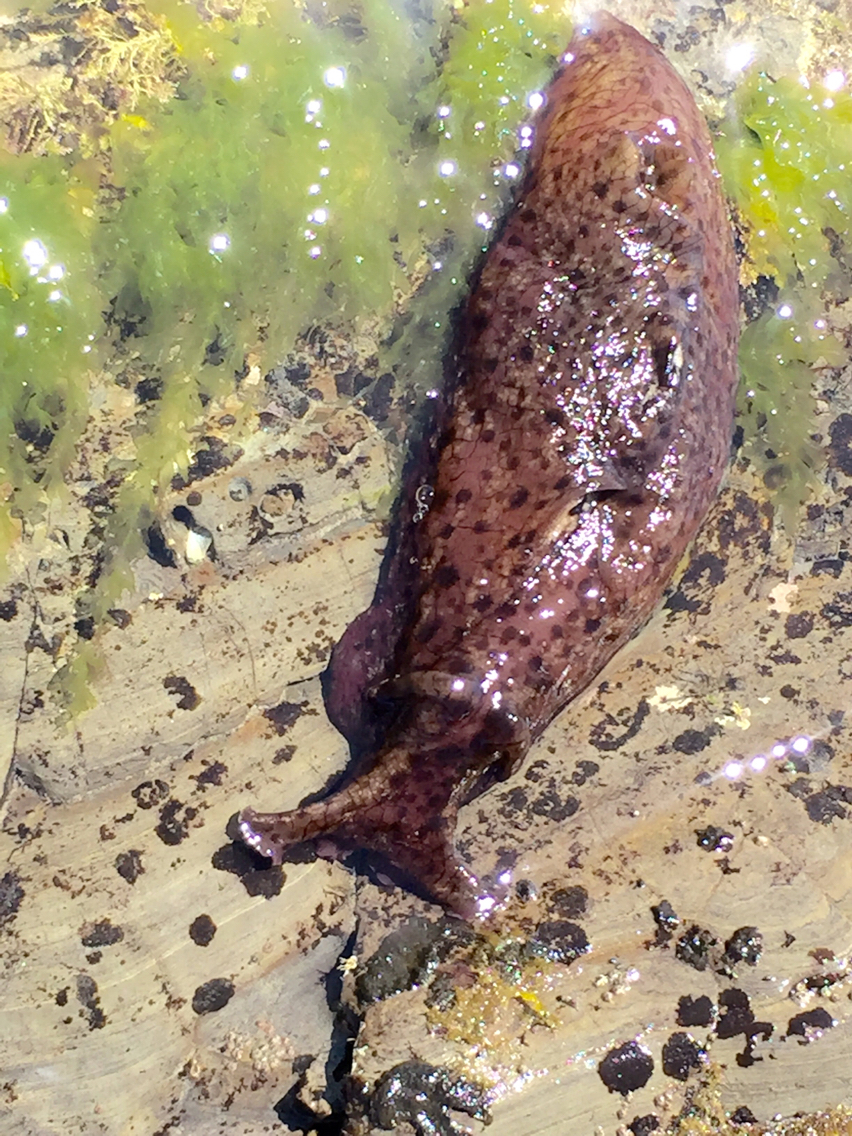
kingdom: Animalia
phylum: Mollusca
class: Gastropoda
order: Aplysiida
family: Aplysiidae
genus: Aplysia
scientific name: Aplysia californica
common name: California seahare
